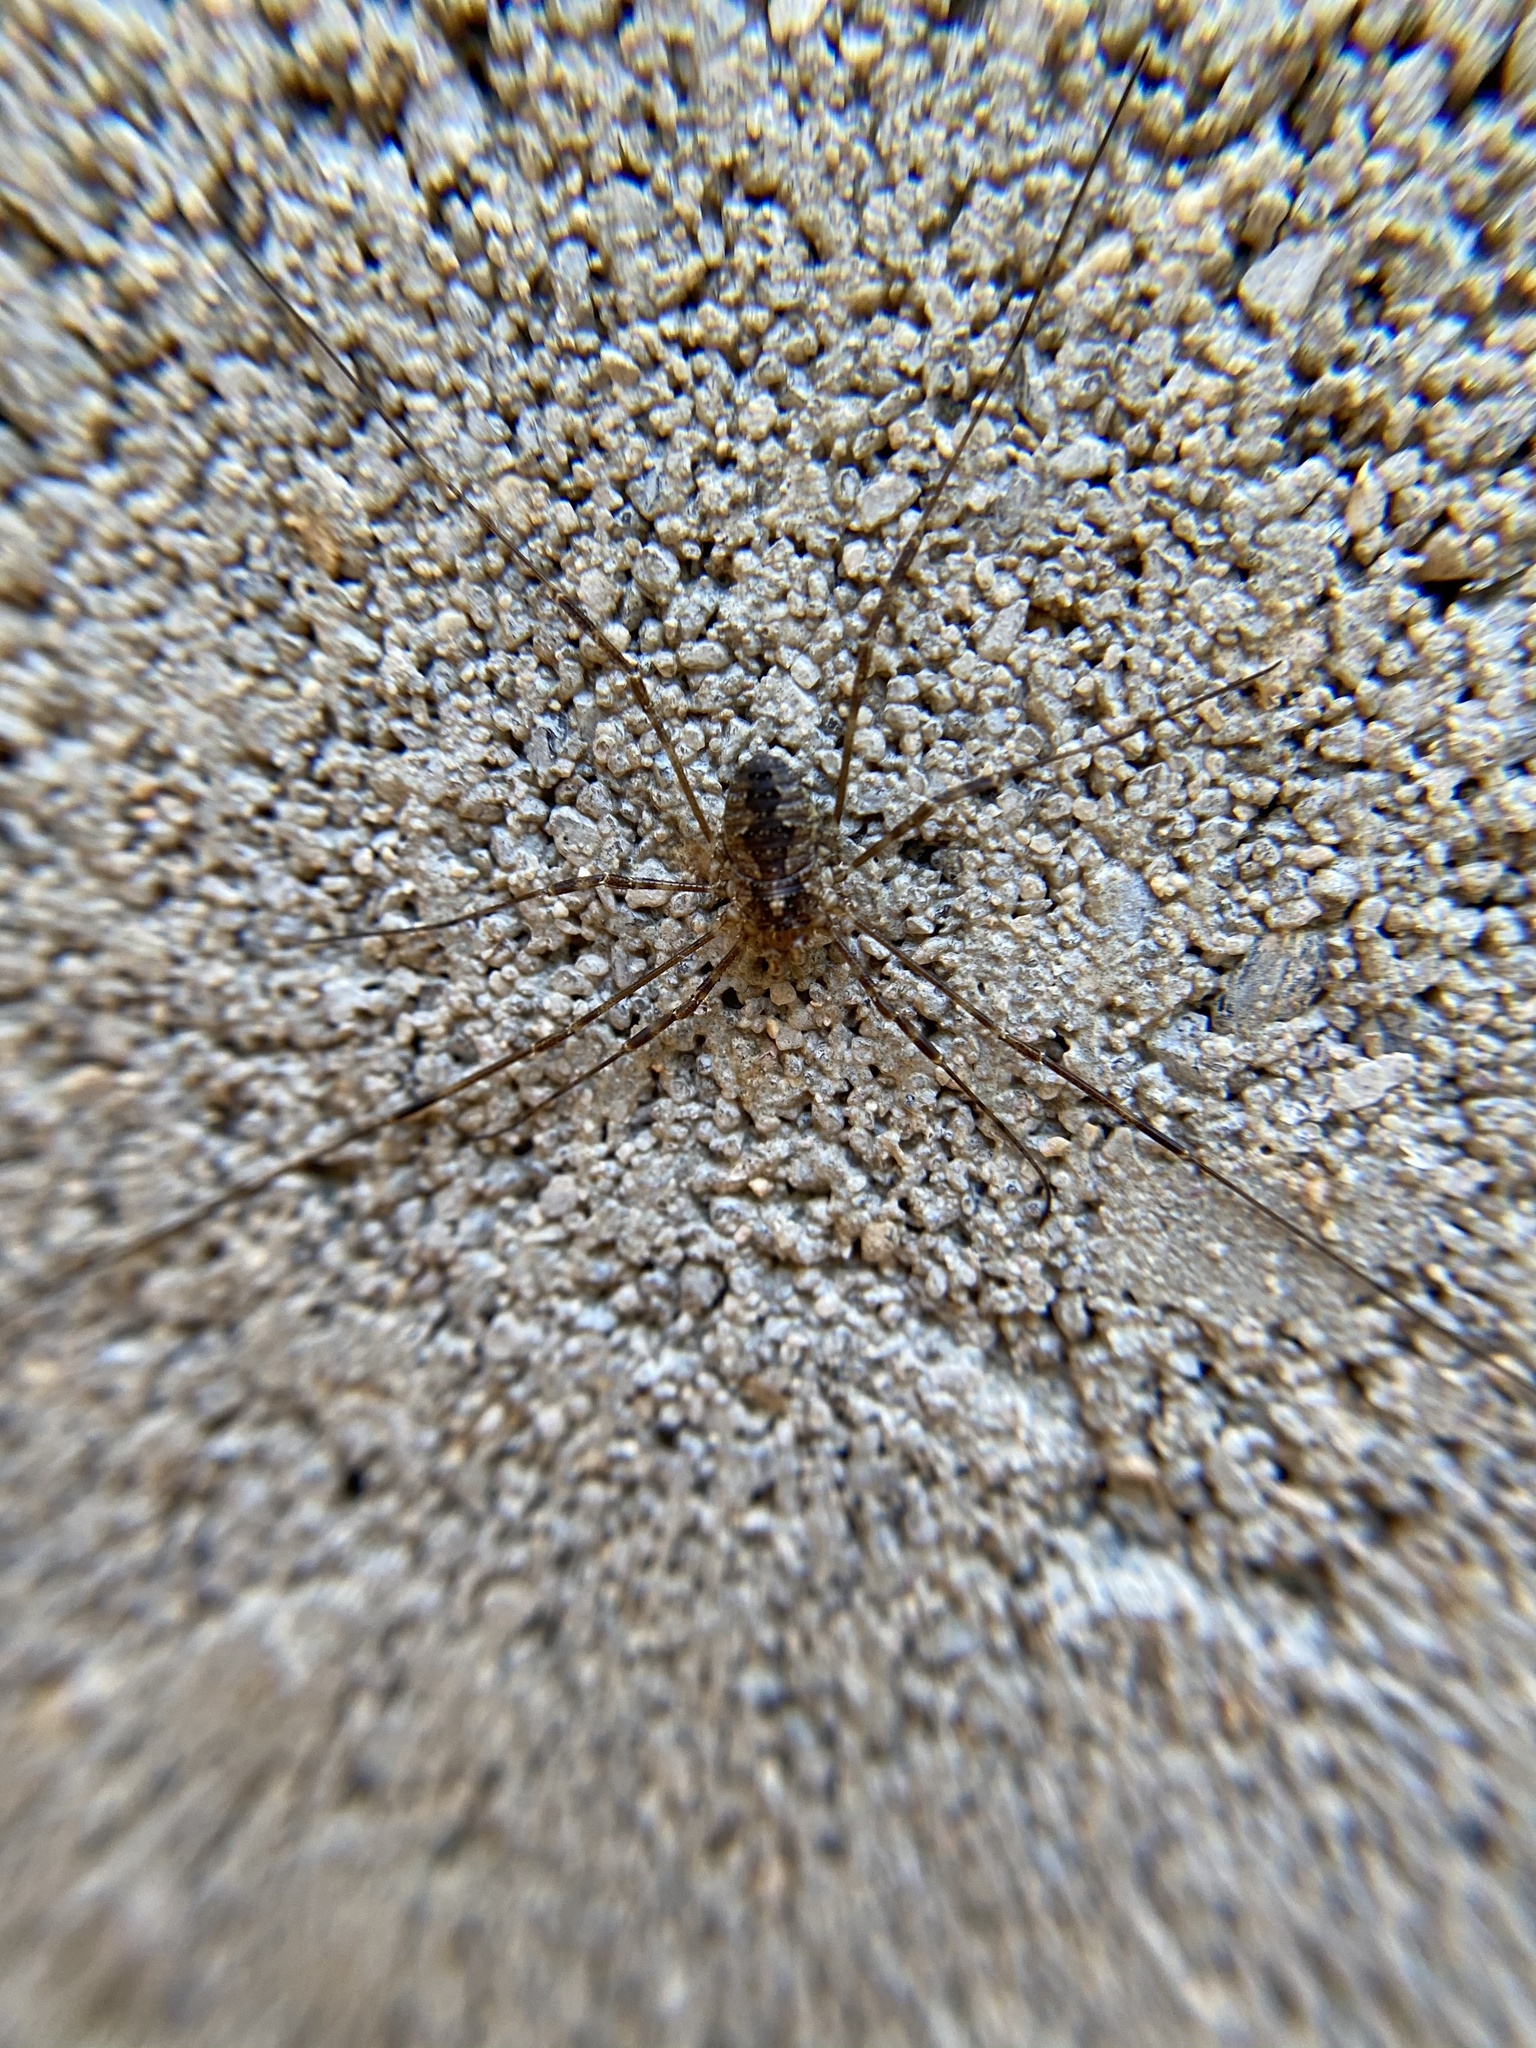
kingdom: Animalia
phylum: Arthropoda
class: Arachnida
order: Opiliones
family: Phalangiidae
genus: Odiellus
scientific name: Odiellus pictus
